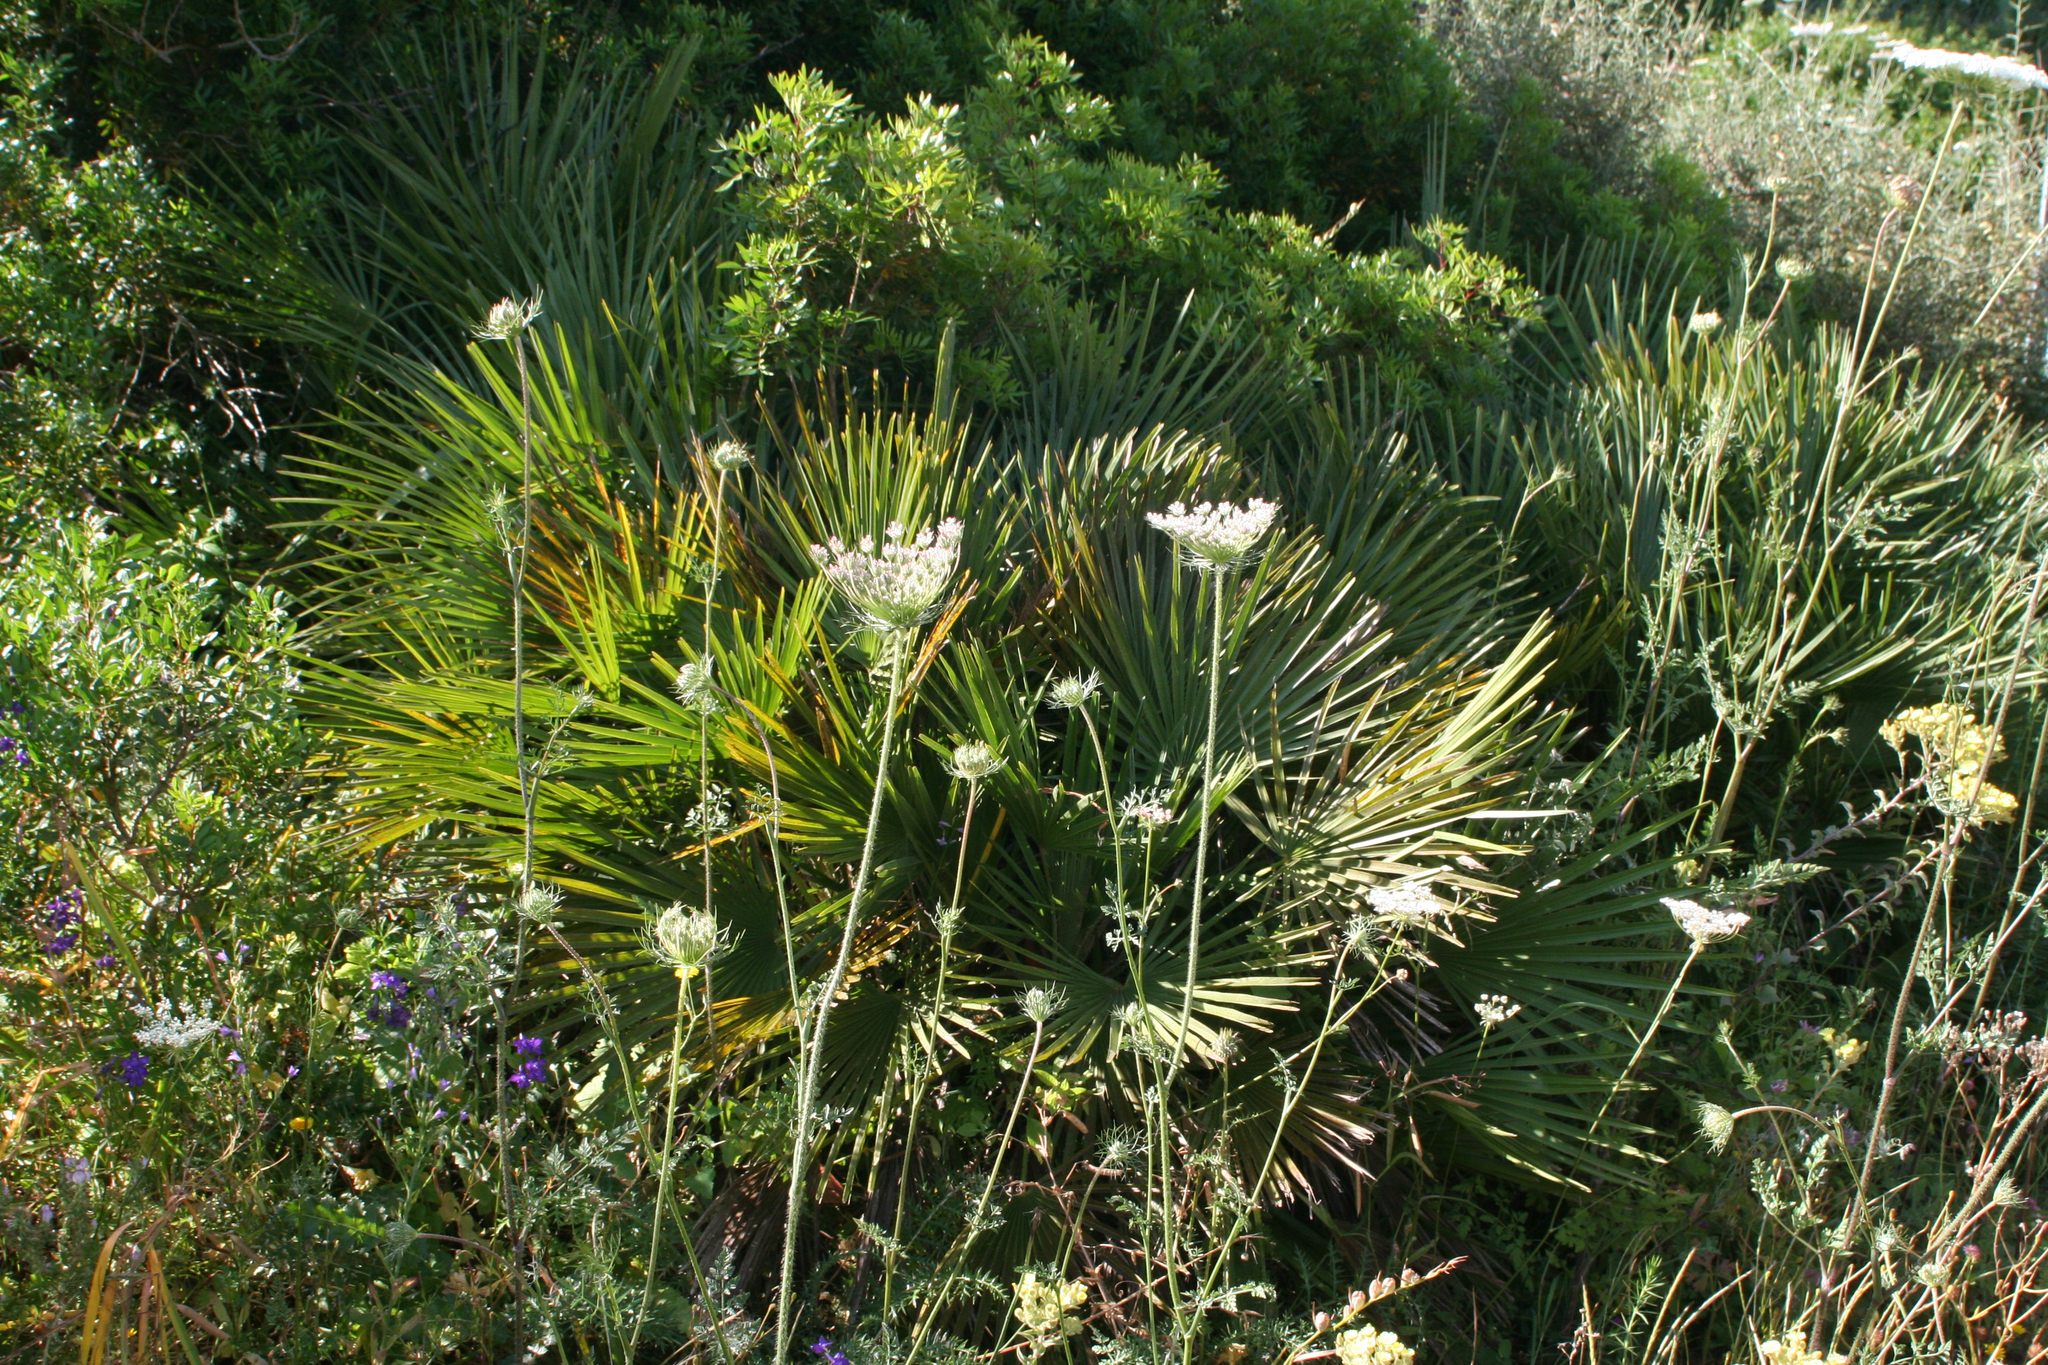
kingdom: Plantae
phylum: Tracheophyta
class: Liliopsida
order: Arecales
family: Arecaceae
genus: Chamaerops
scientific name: Chamaerops humilis
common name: Dwarf fan palm
